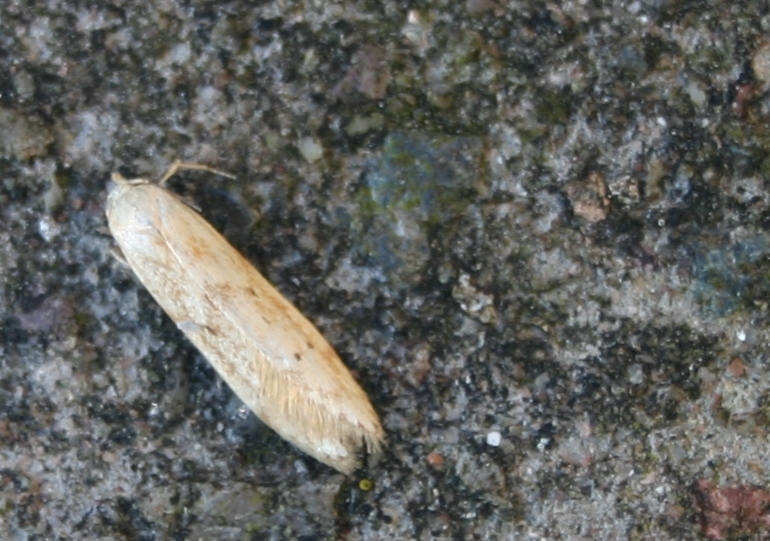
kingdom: Animalia
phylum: Arthropoda
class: Insecta
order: Lepidoptera
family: Blastobasidae
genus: Blastobasis
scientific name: Blastobasis lacticolella
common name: London dowd
